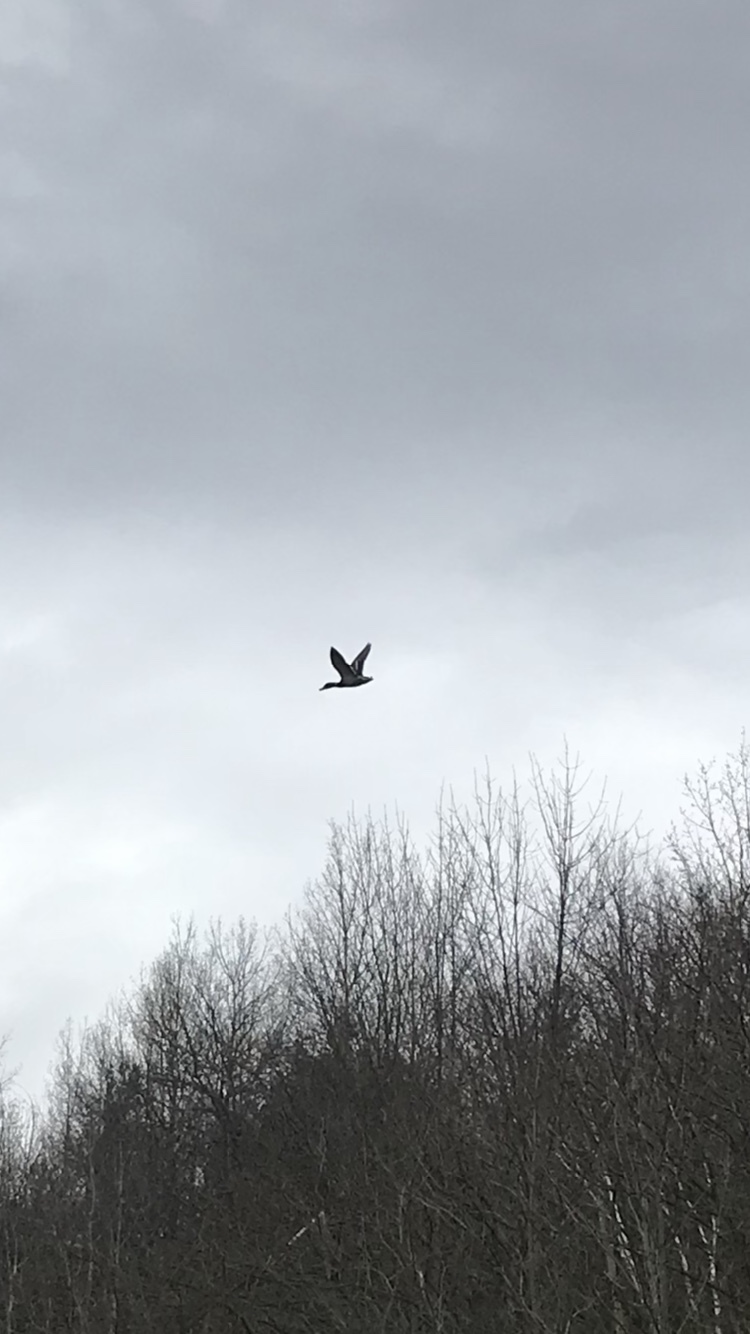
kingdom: Animalia
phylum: Chordata
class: Aves
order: Anseriformes
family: Anatidae
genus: Anas
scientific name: Anas platyrhynchos
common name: Mallard
